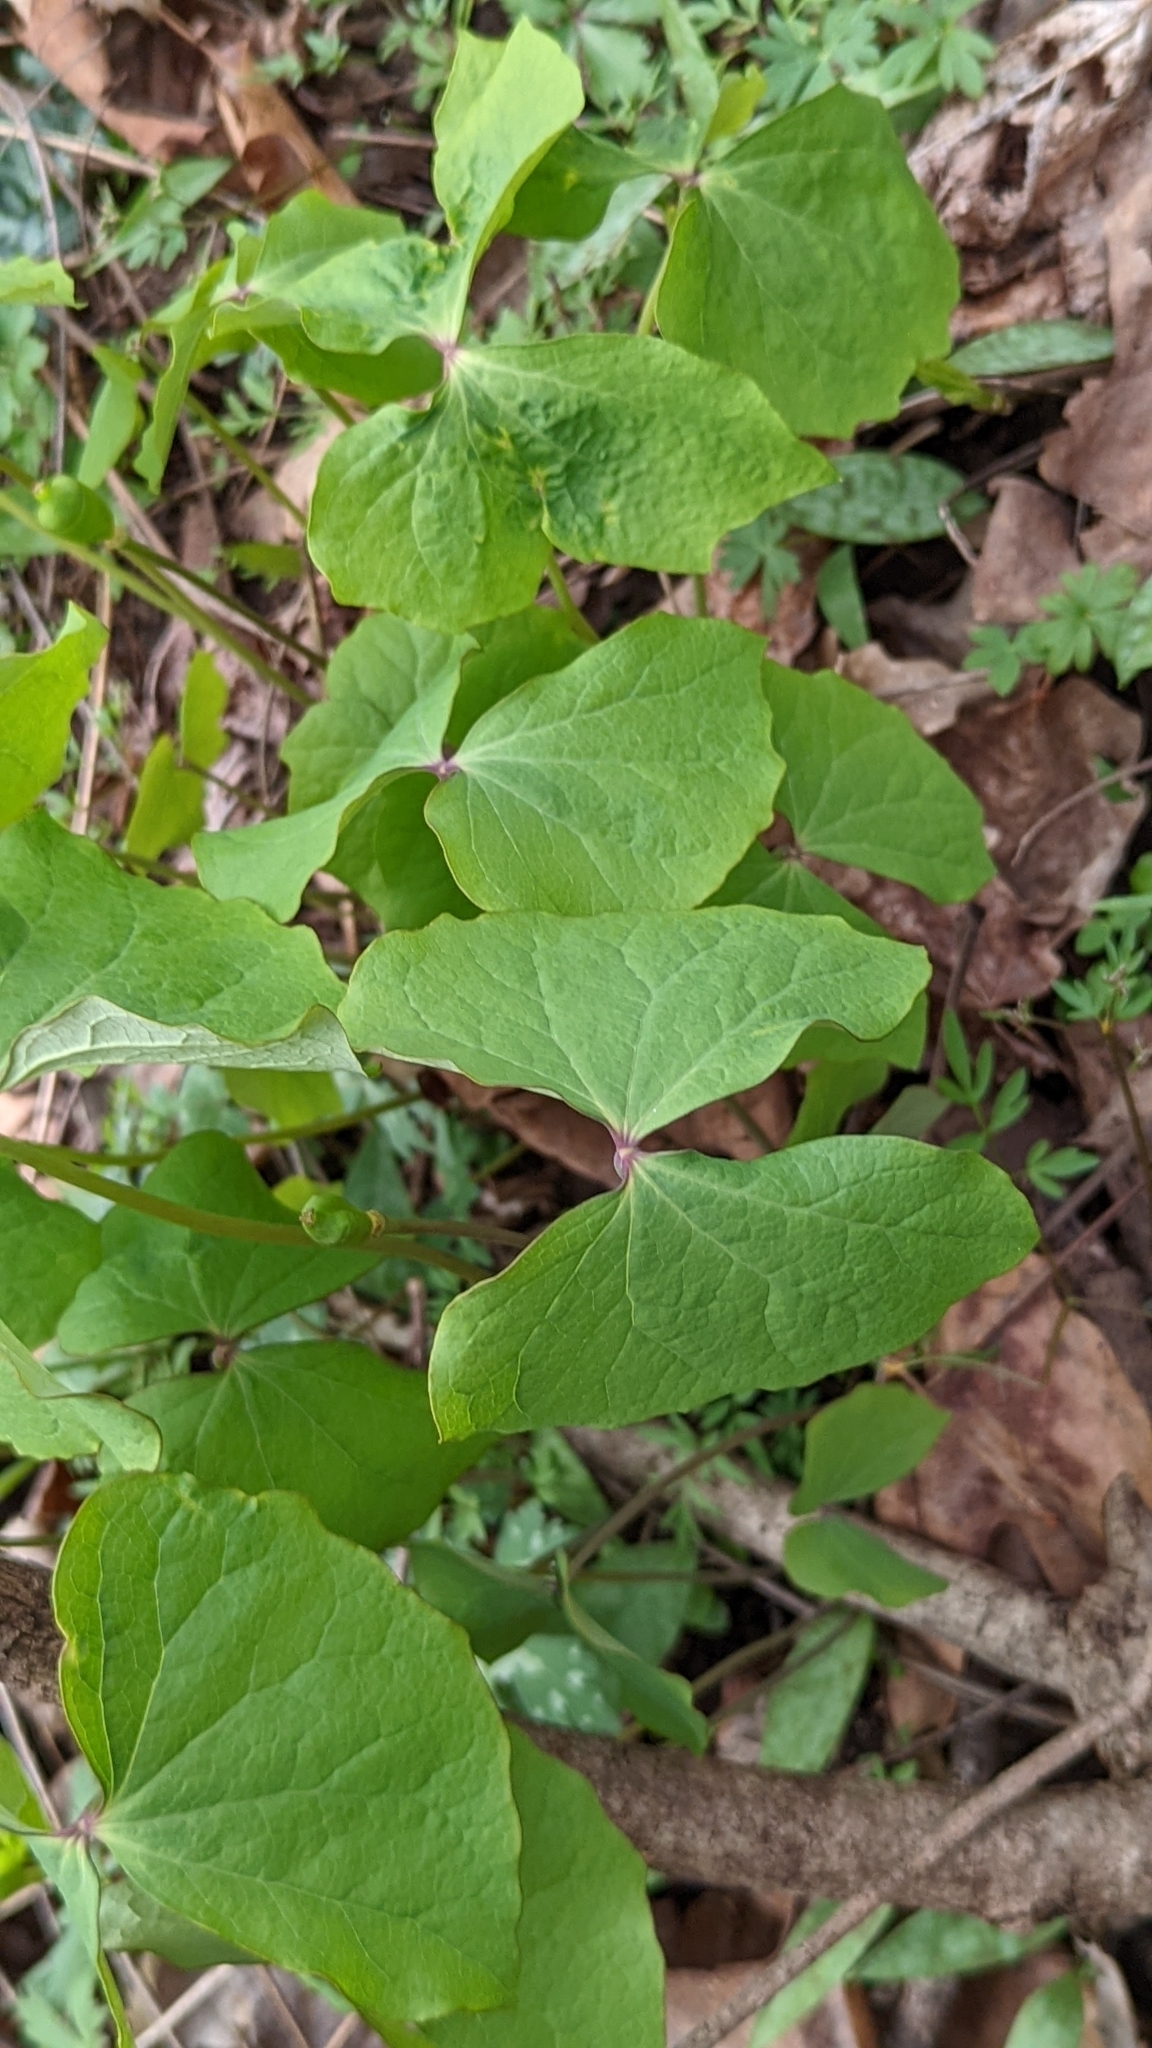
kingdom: Plantae
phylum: Tracheophyta
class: Magnoliopsida
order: Ranunculales
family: Berberidaceae
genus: Jeffersonia
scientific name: Jeffersonia diphylla
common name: Rheumatism-root
